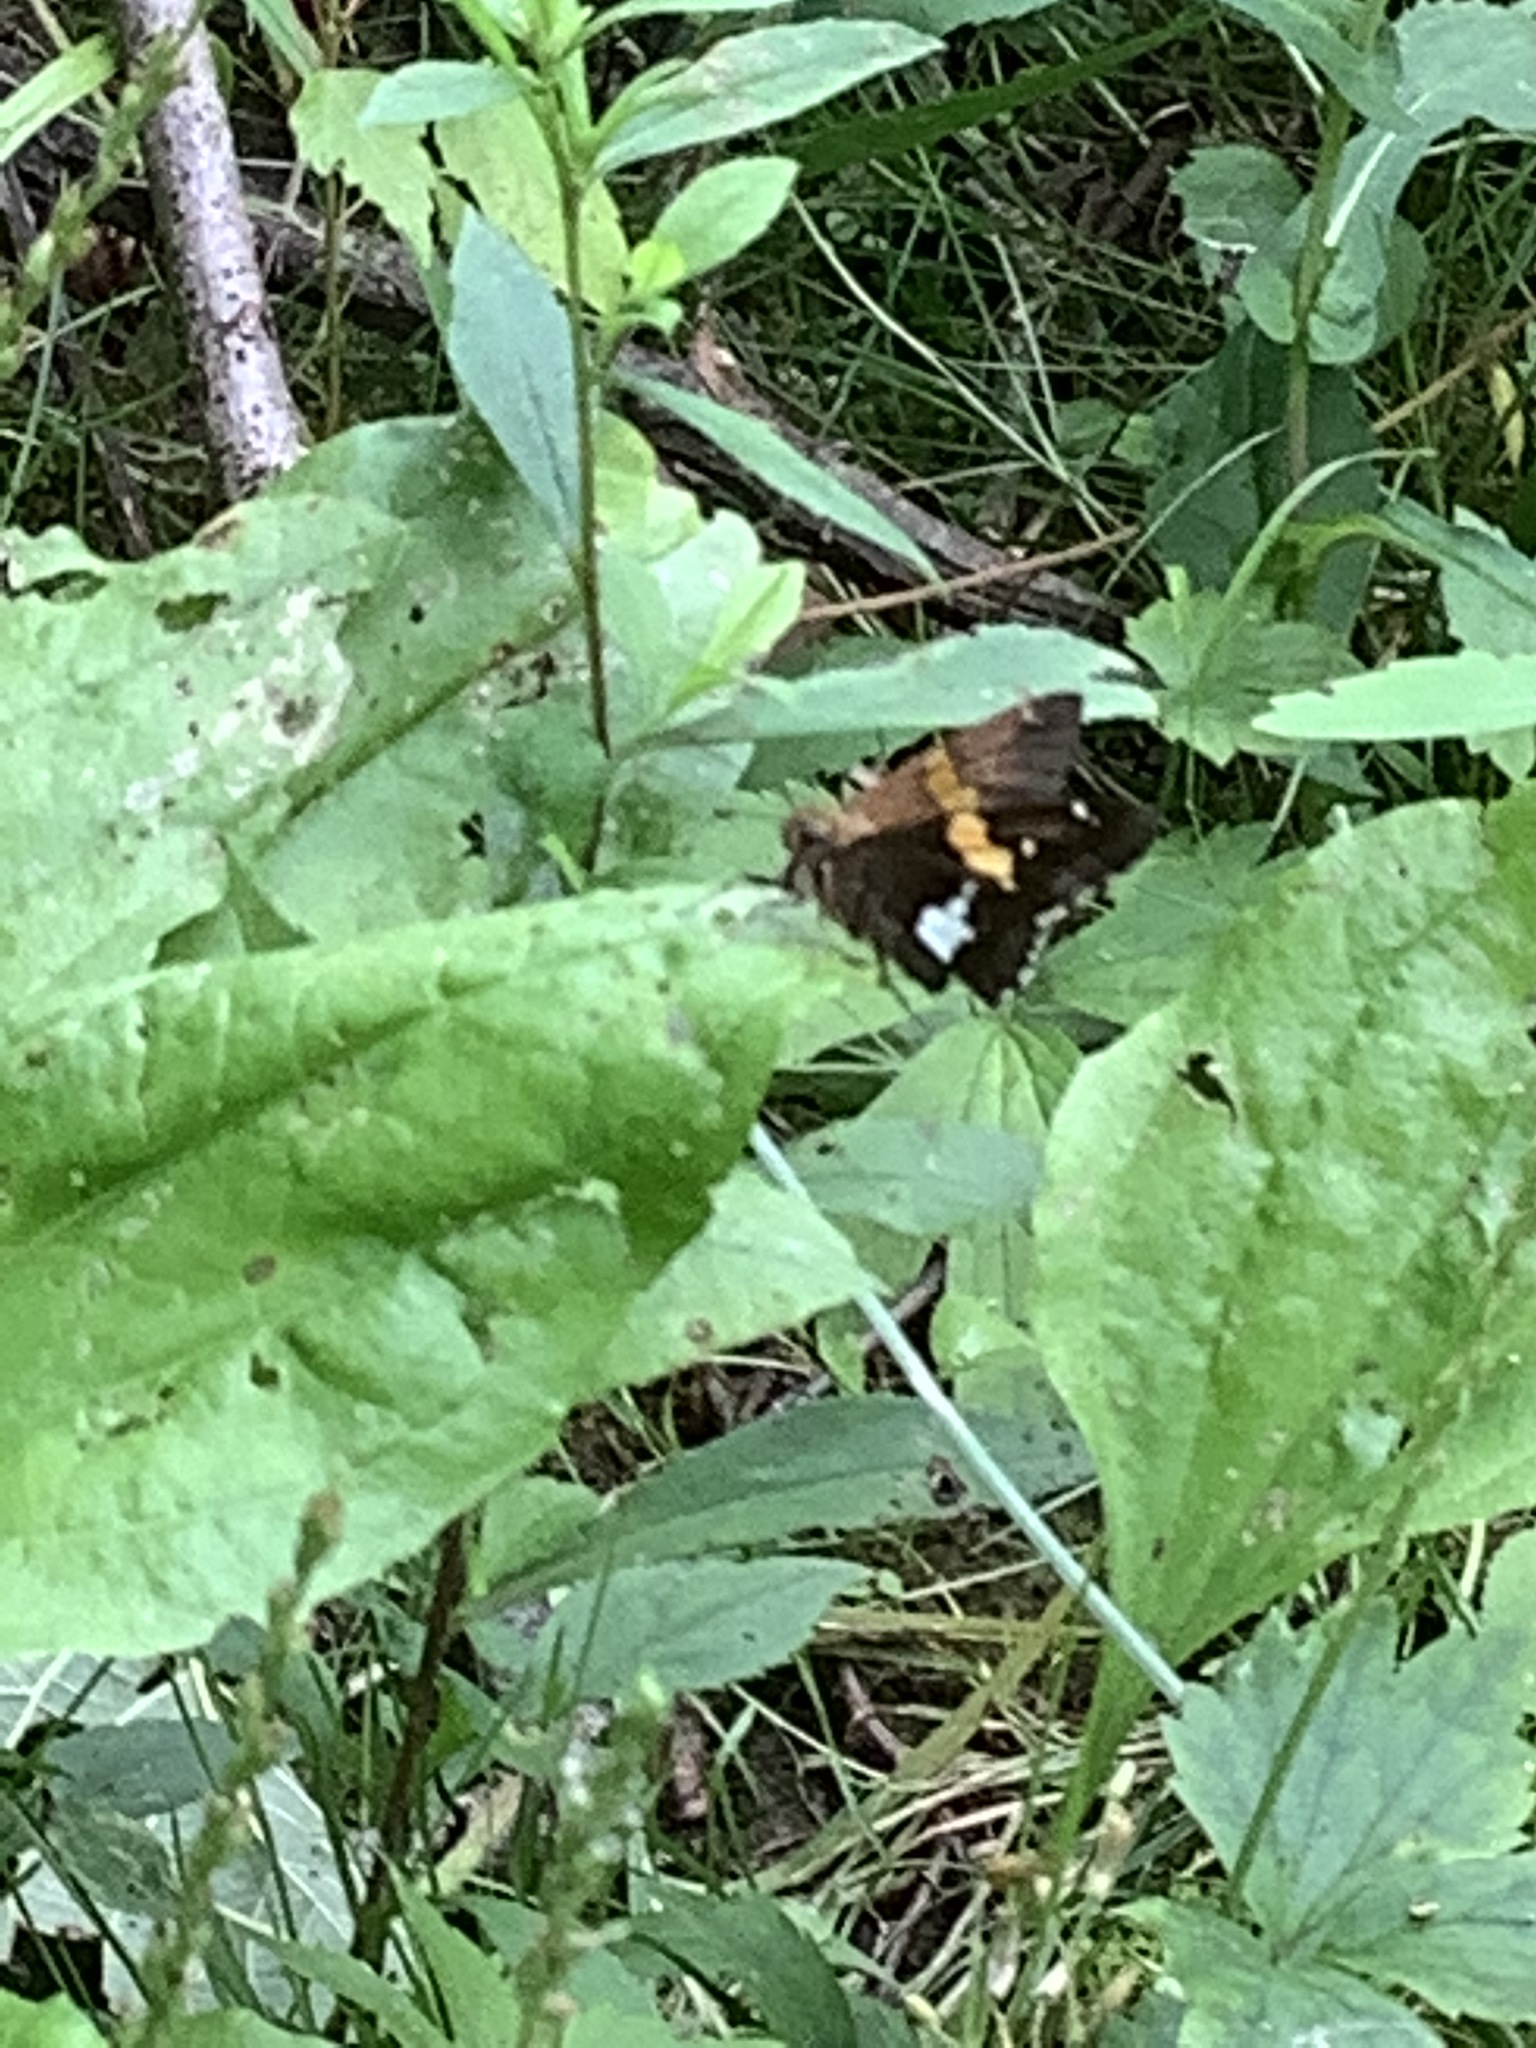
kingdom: Animalia
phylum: Arthropoda
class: Insecta
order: Lepidoptera
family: Hesperiidae
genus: Epargyreus
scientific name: Epargyreus clarus
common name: Silver-spotted skipper
